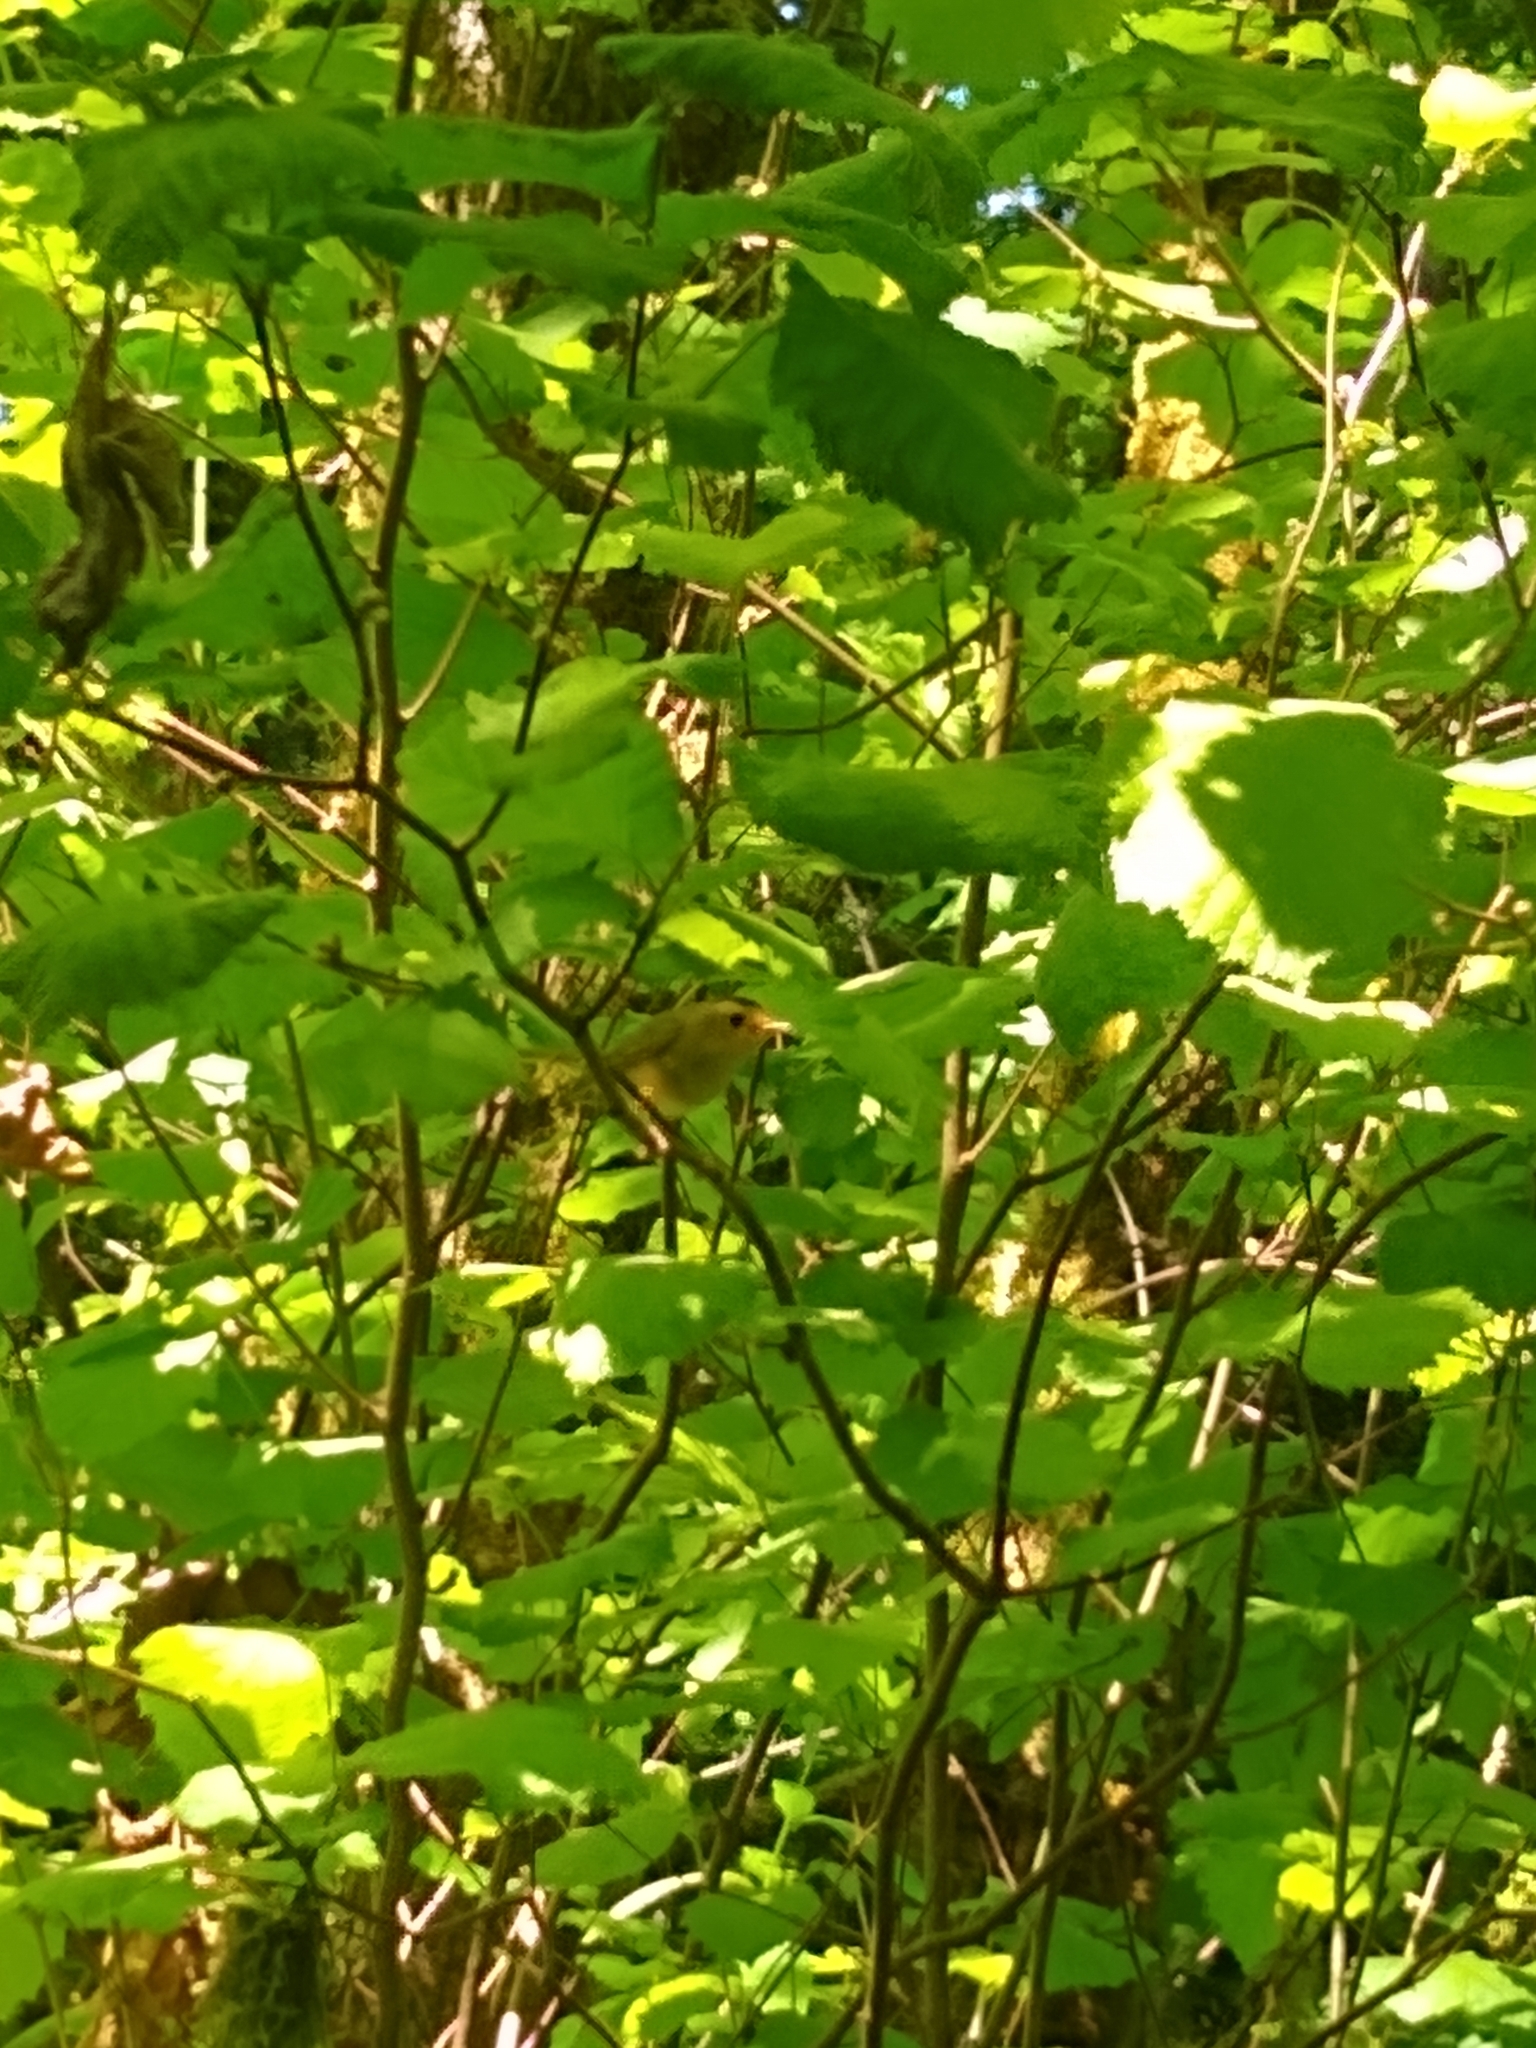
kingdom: Animalia
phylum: Chordata
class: Aves
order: Passeriformes
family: Parulidae
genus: Cardellina
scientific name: Cardellina pusilla
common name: Wilson's warbler
